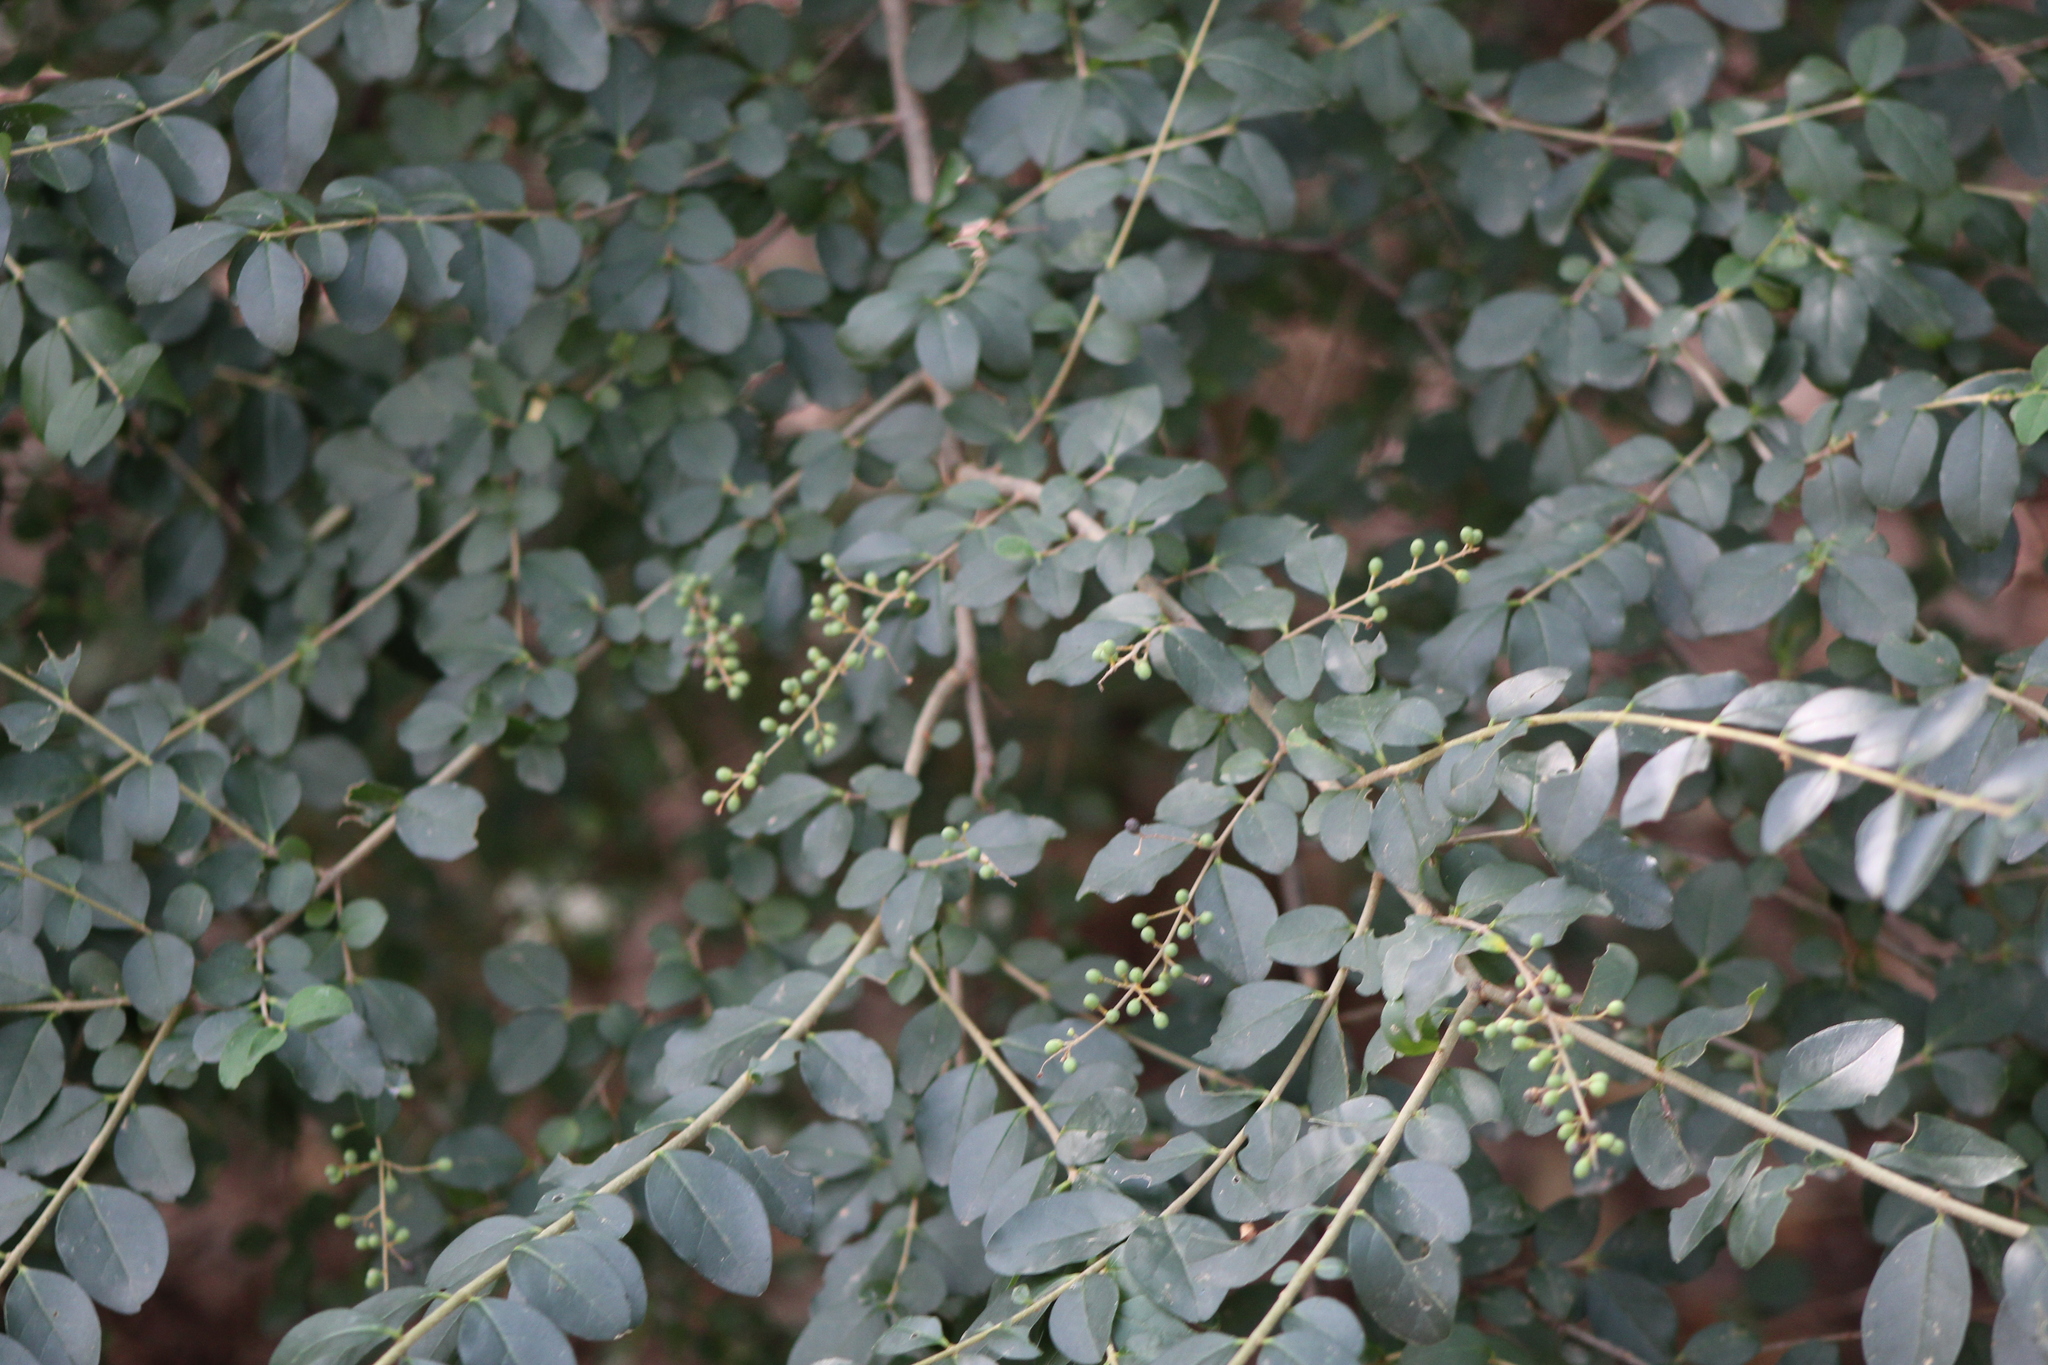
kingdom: Plantae
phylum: Tracheophyta
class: Magnoliopsida
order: Lamiales
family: Oleaceae
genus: Ligustrum
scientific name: Ligustrum sinense
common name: Chinese privet
